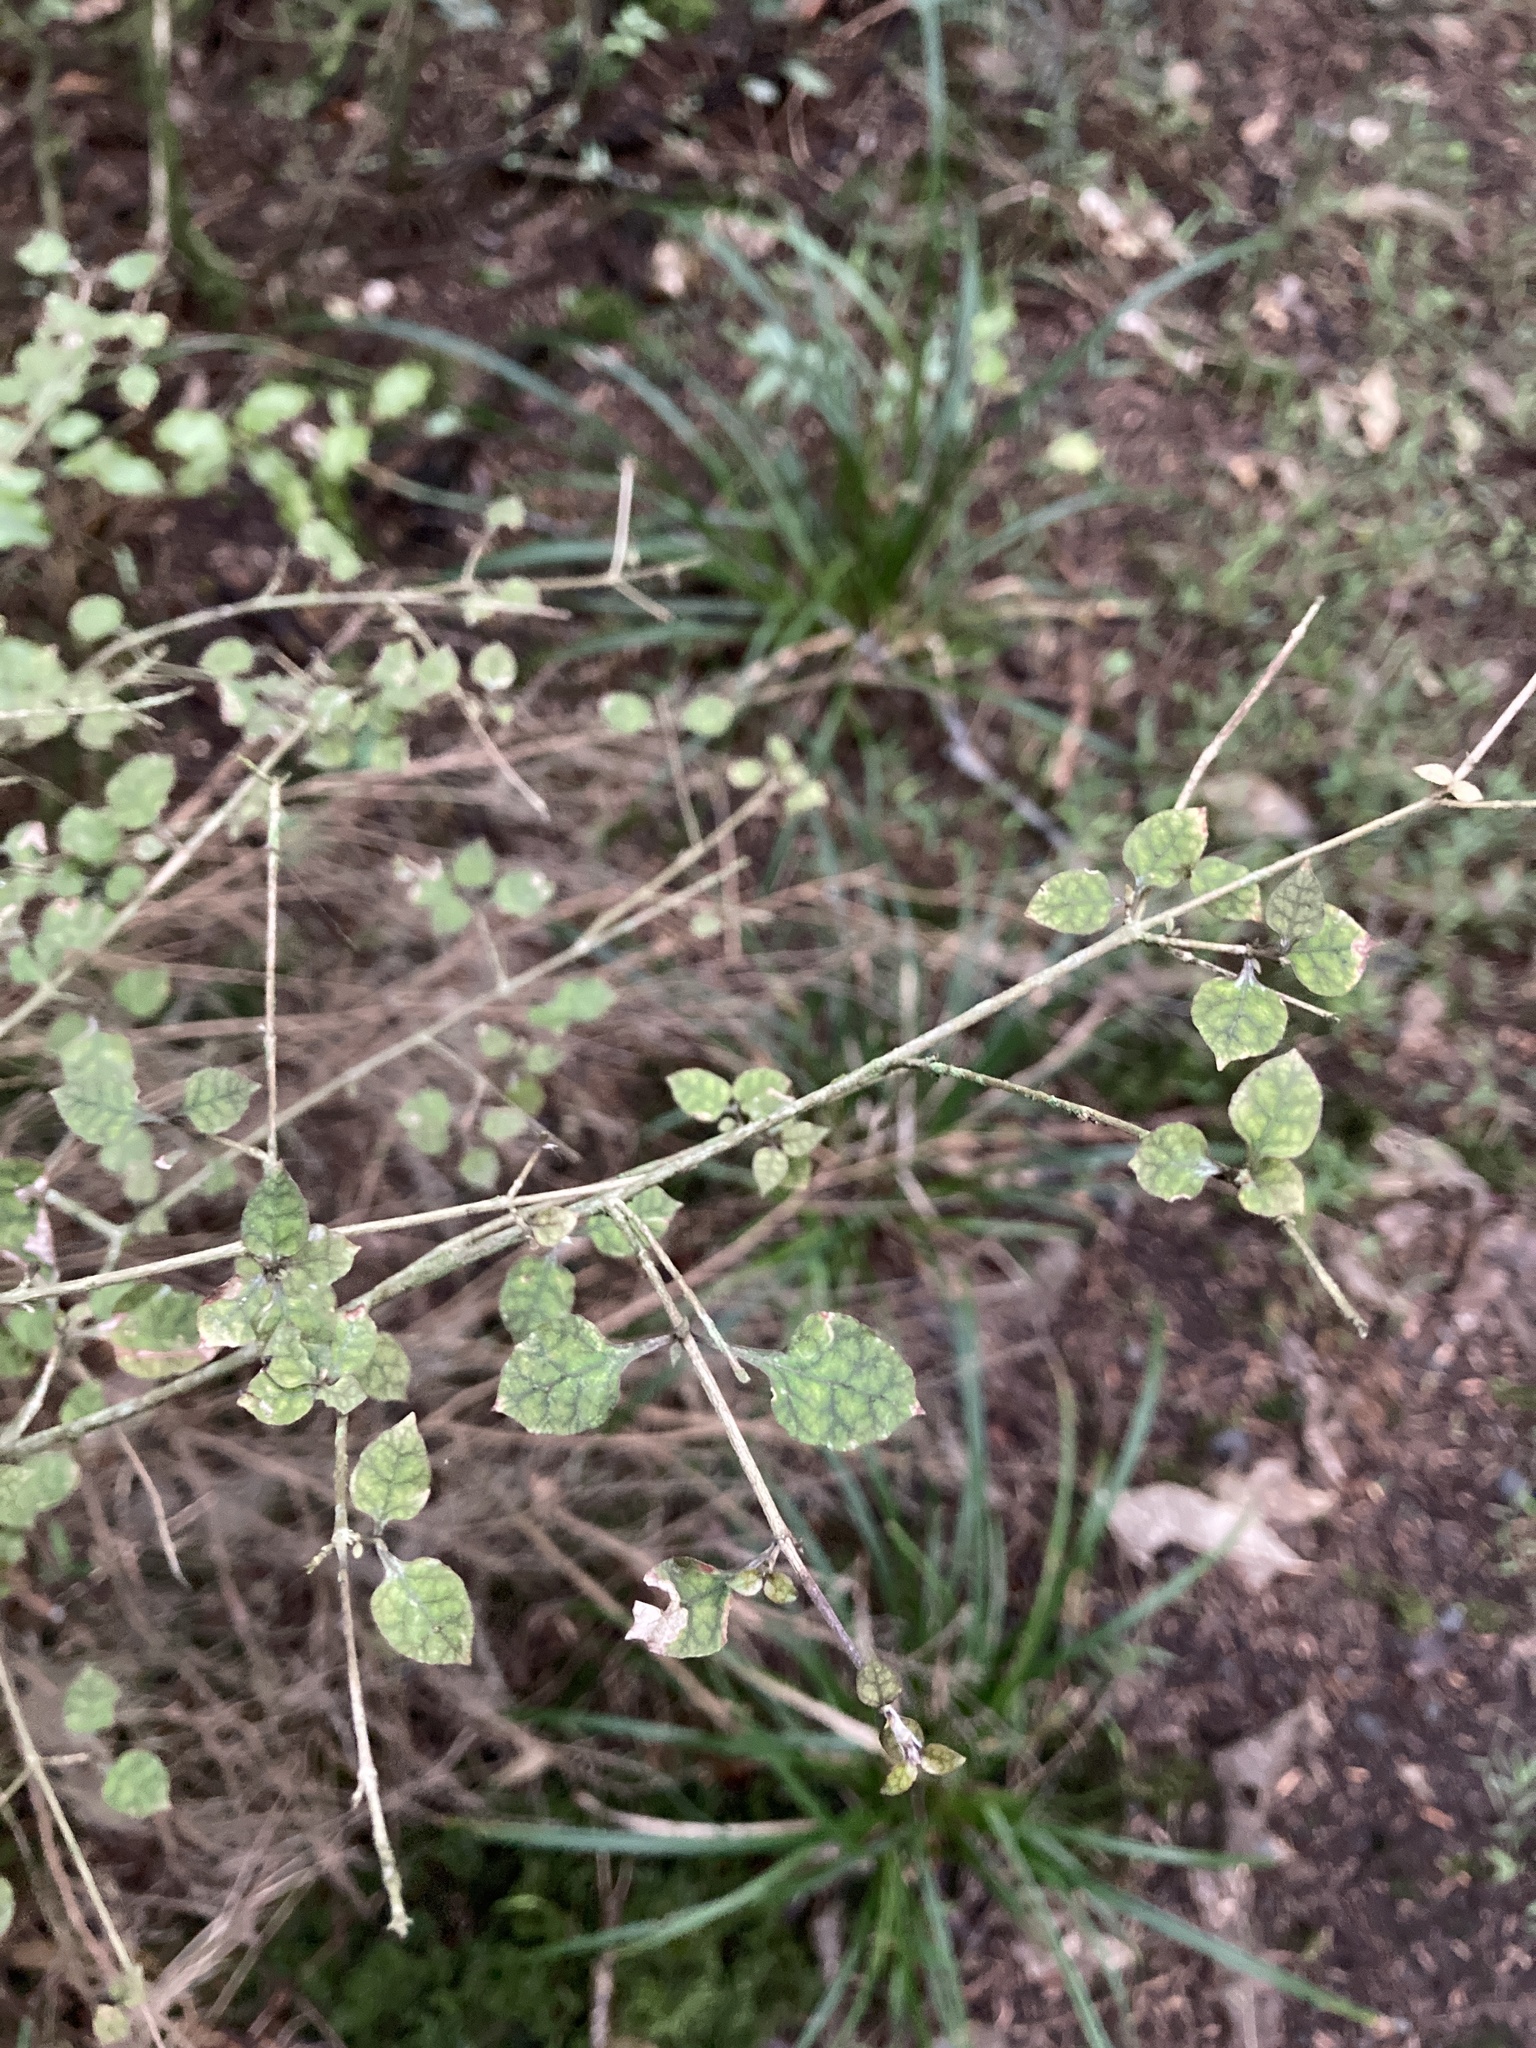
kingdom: Plantae
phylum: Tracheophyta
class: Magnoliopsida
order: Gentianales
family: Rubiaceae
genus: Coprosma
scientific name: Coprosma areolata
